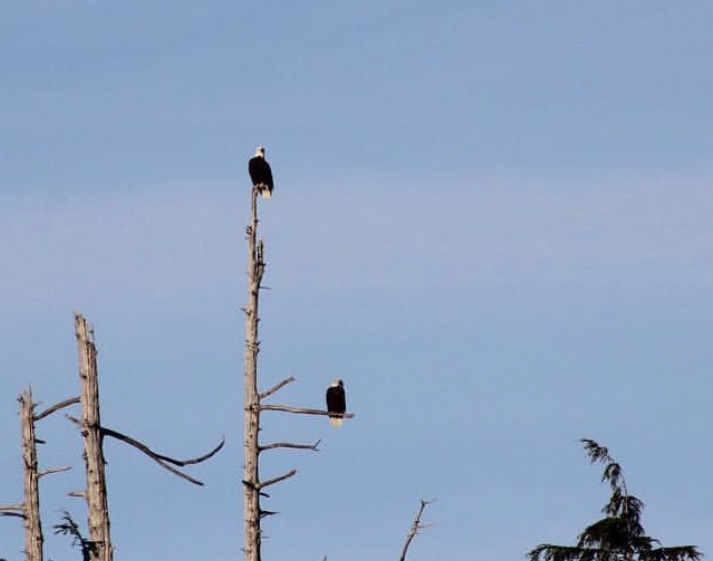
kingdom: Animalia
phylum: Chordata
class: Aves
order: Accipitriformes
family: Accipitridae
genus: Haliaeetus
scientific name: Haliaeetus leucocephalus
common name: Bald eagle
